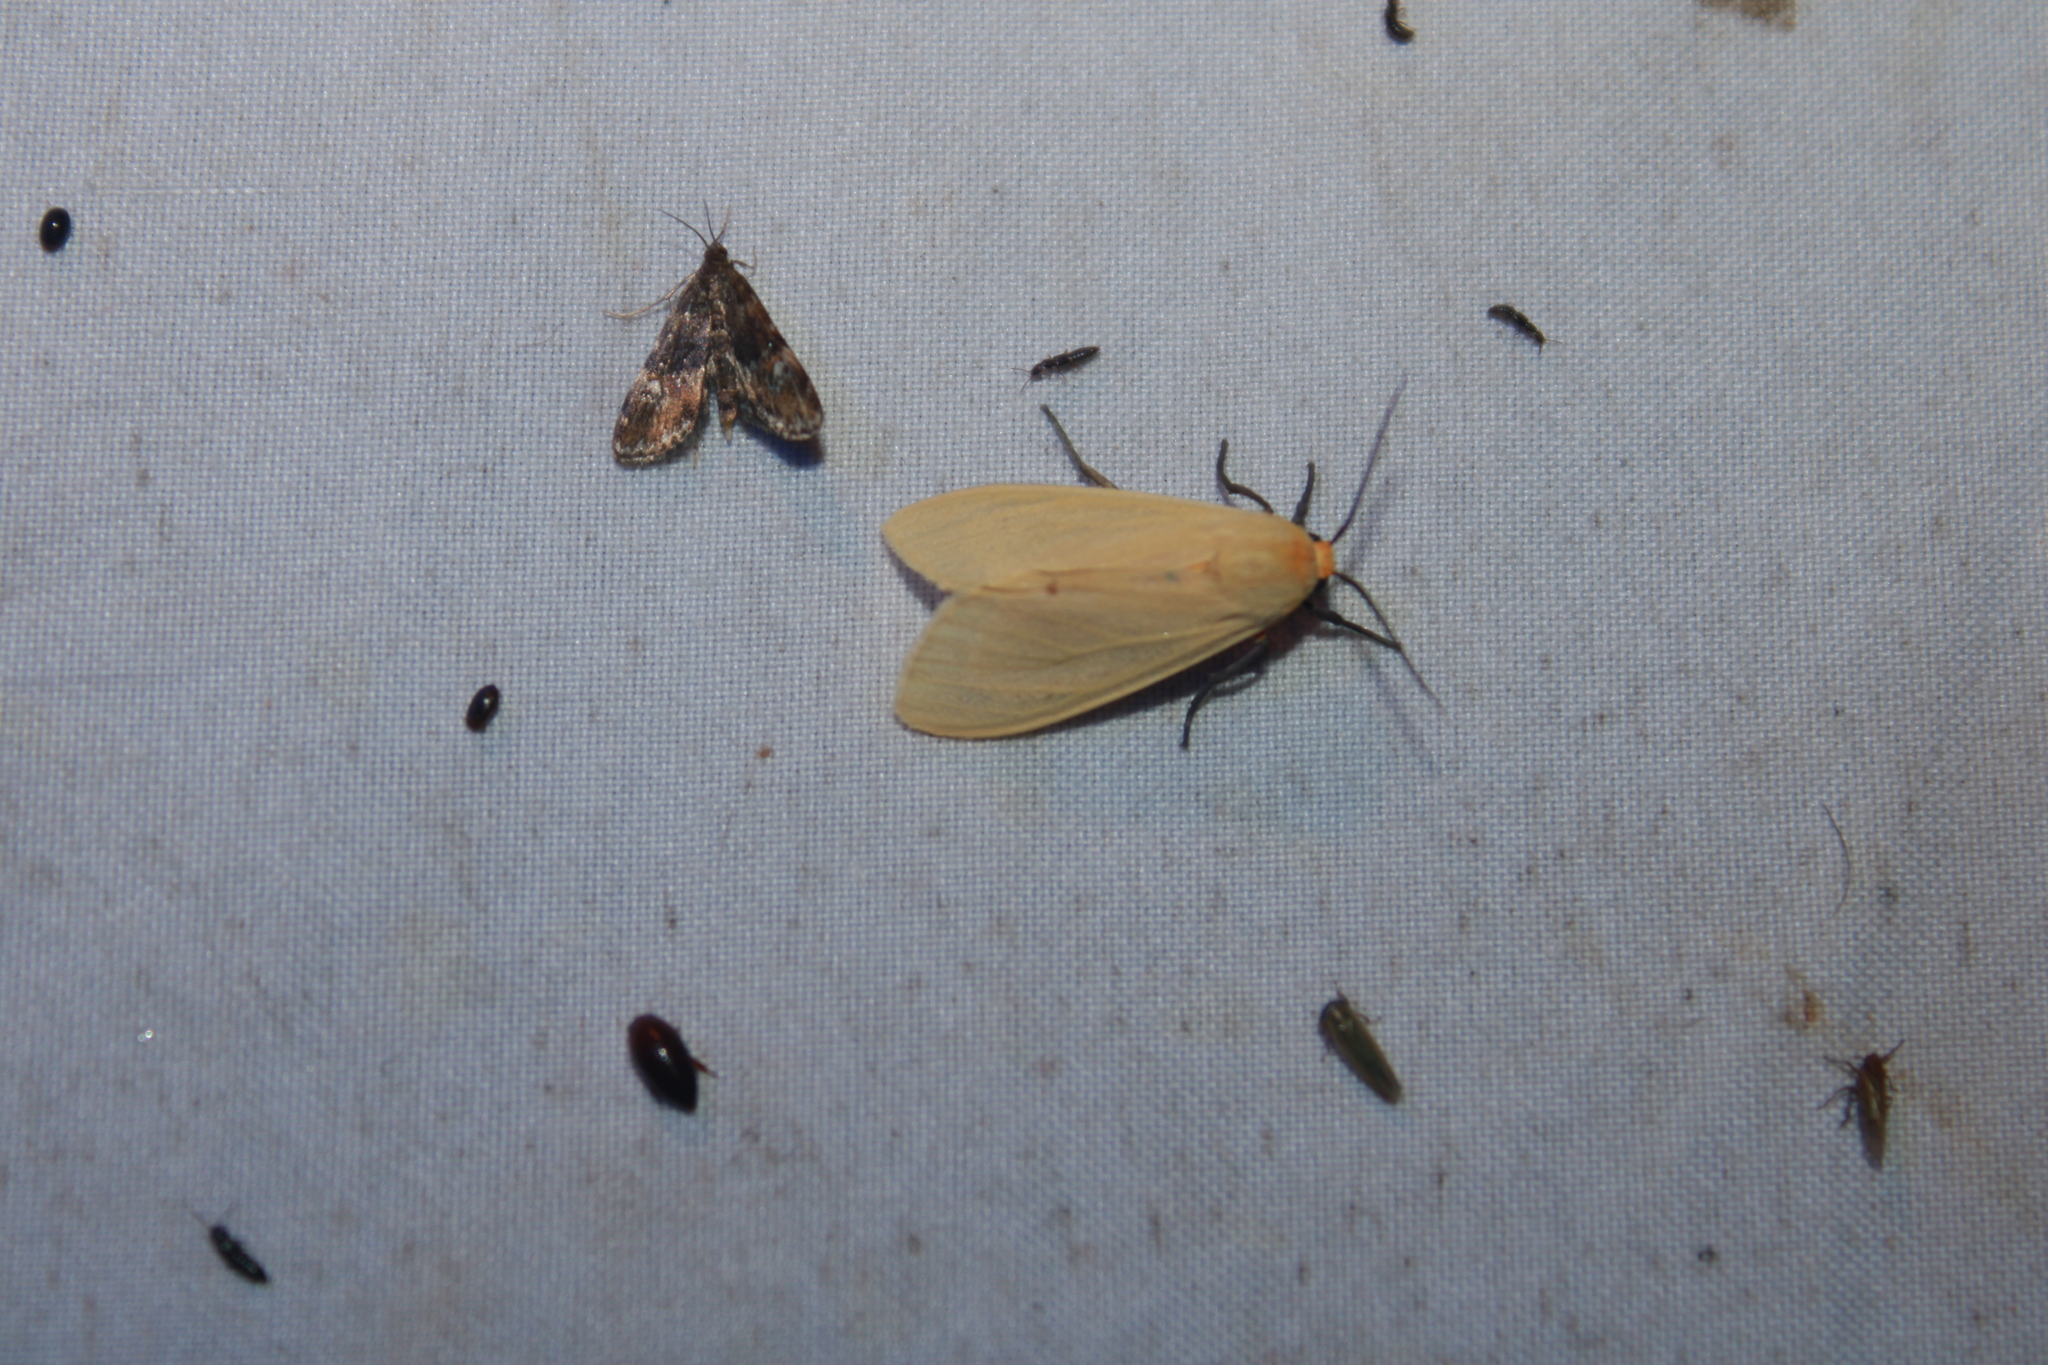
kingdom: Animalia
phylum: Arthropoda
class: Insecta
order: Lepidoptera
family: Erebidae
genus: Pareuchaetes
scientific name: Pareuchaetes insulata
